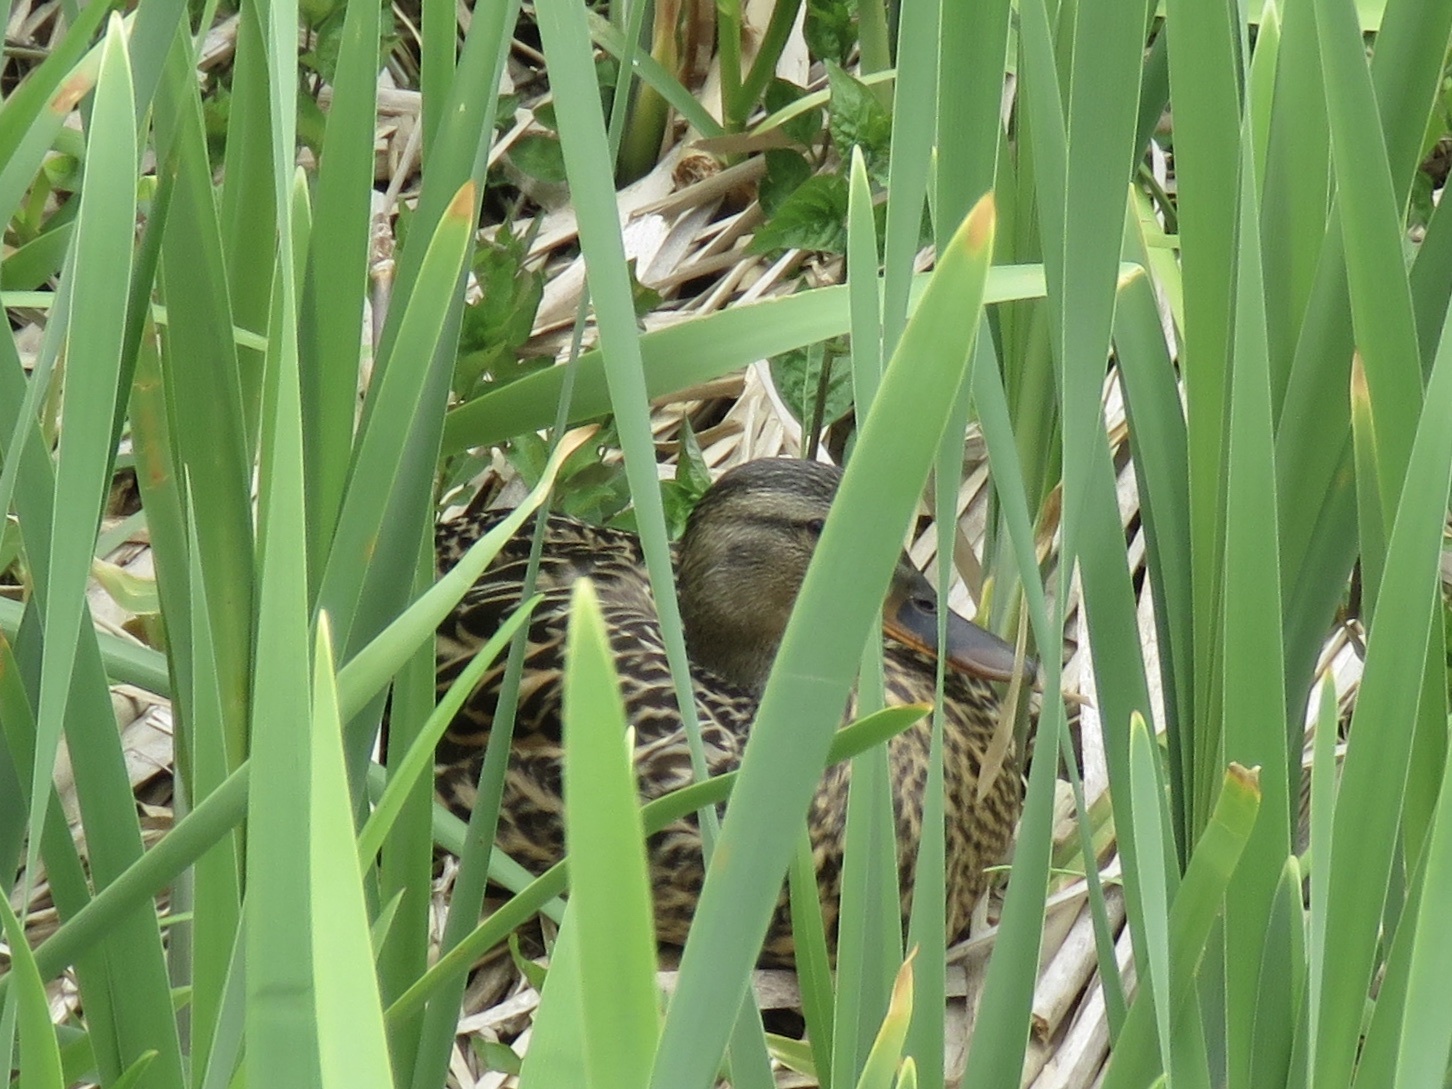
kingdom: Animalia
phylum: Chordata
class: Aves
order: Anseriformes
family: Anatidae
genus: Anas
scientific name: Anas platyrhynchos
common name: Mallard
